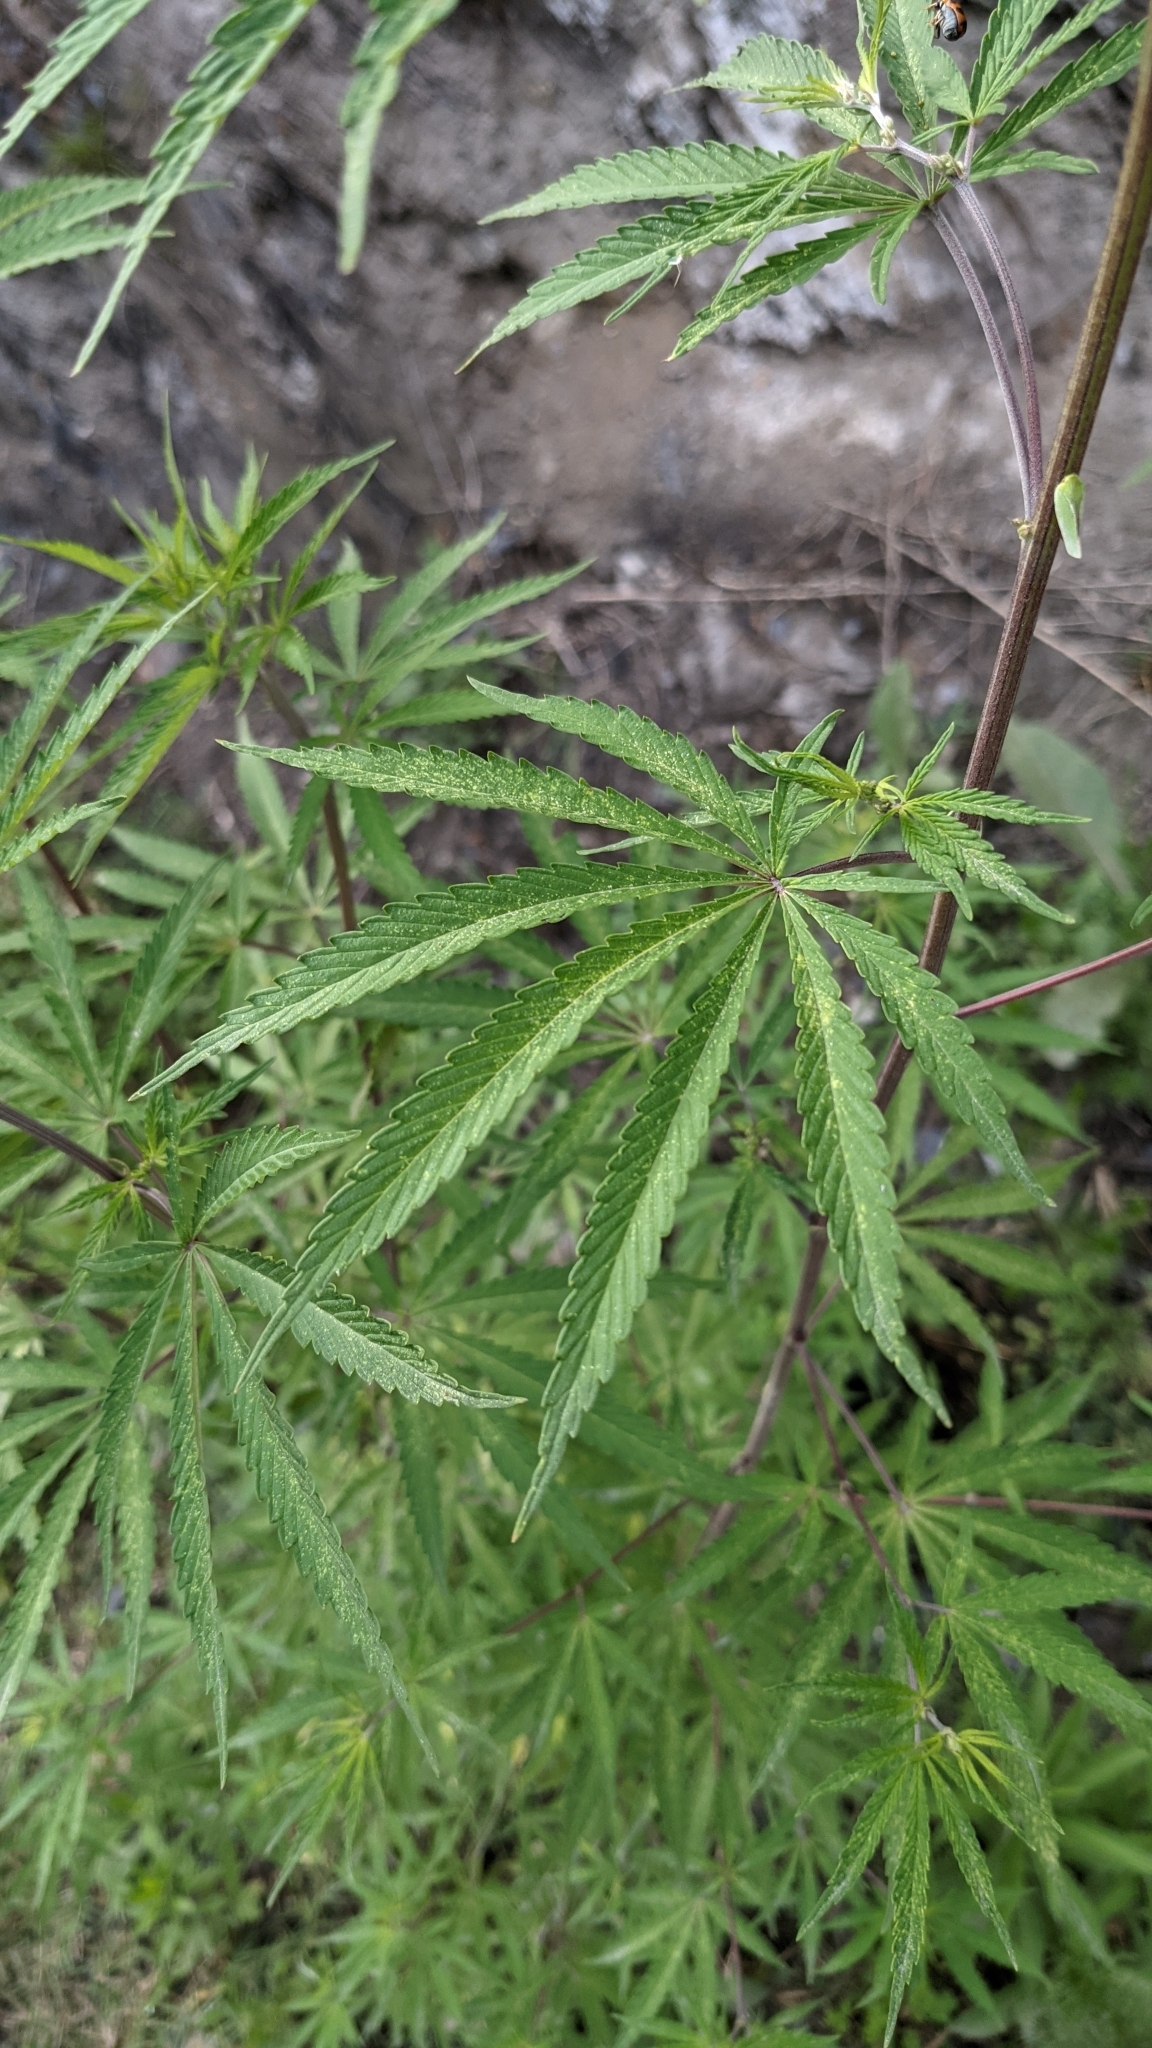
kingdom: Plantae
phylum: Tracheophyta
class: Magnoliopsida
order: Rosales
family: Cannabaceae
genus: Cannabis
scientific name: Cannabis sativa
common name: Hemp
